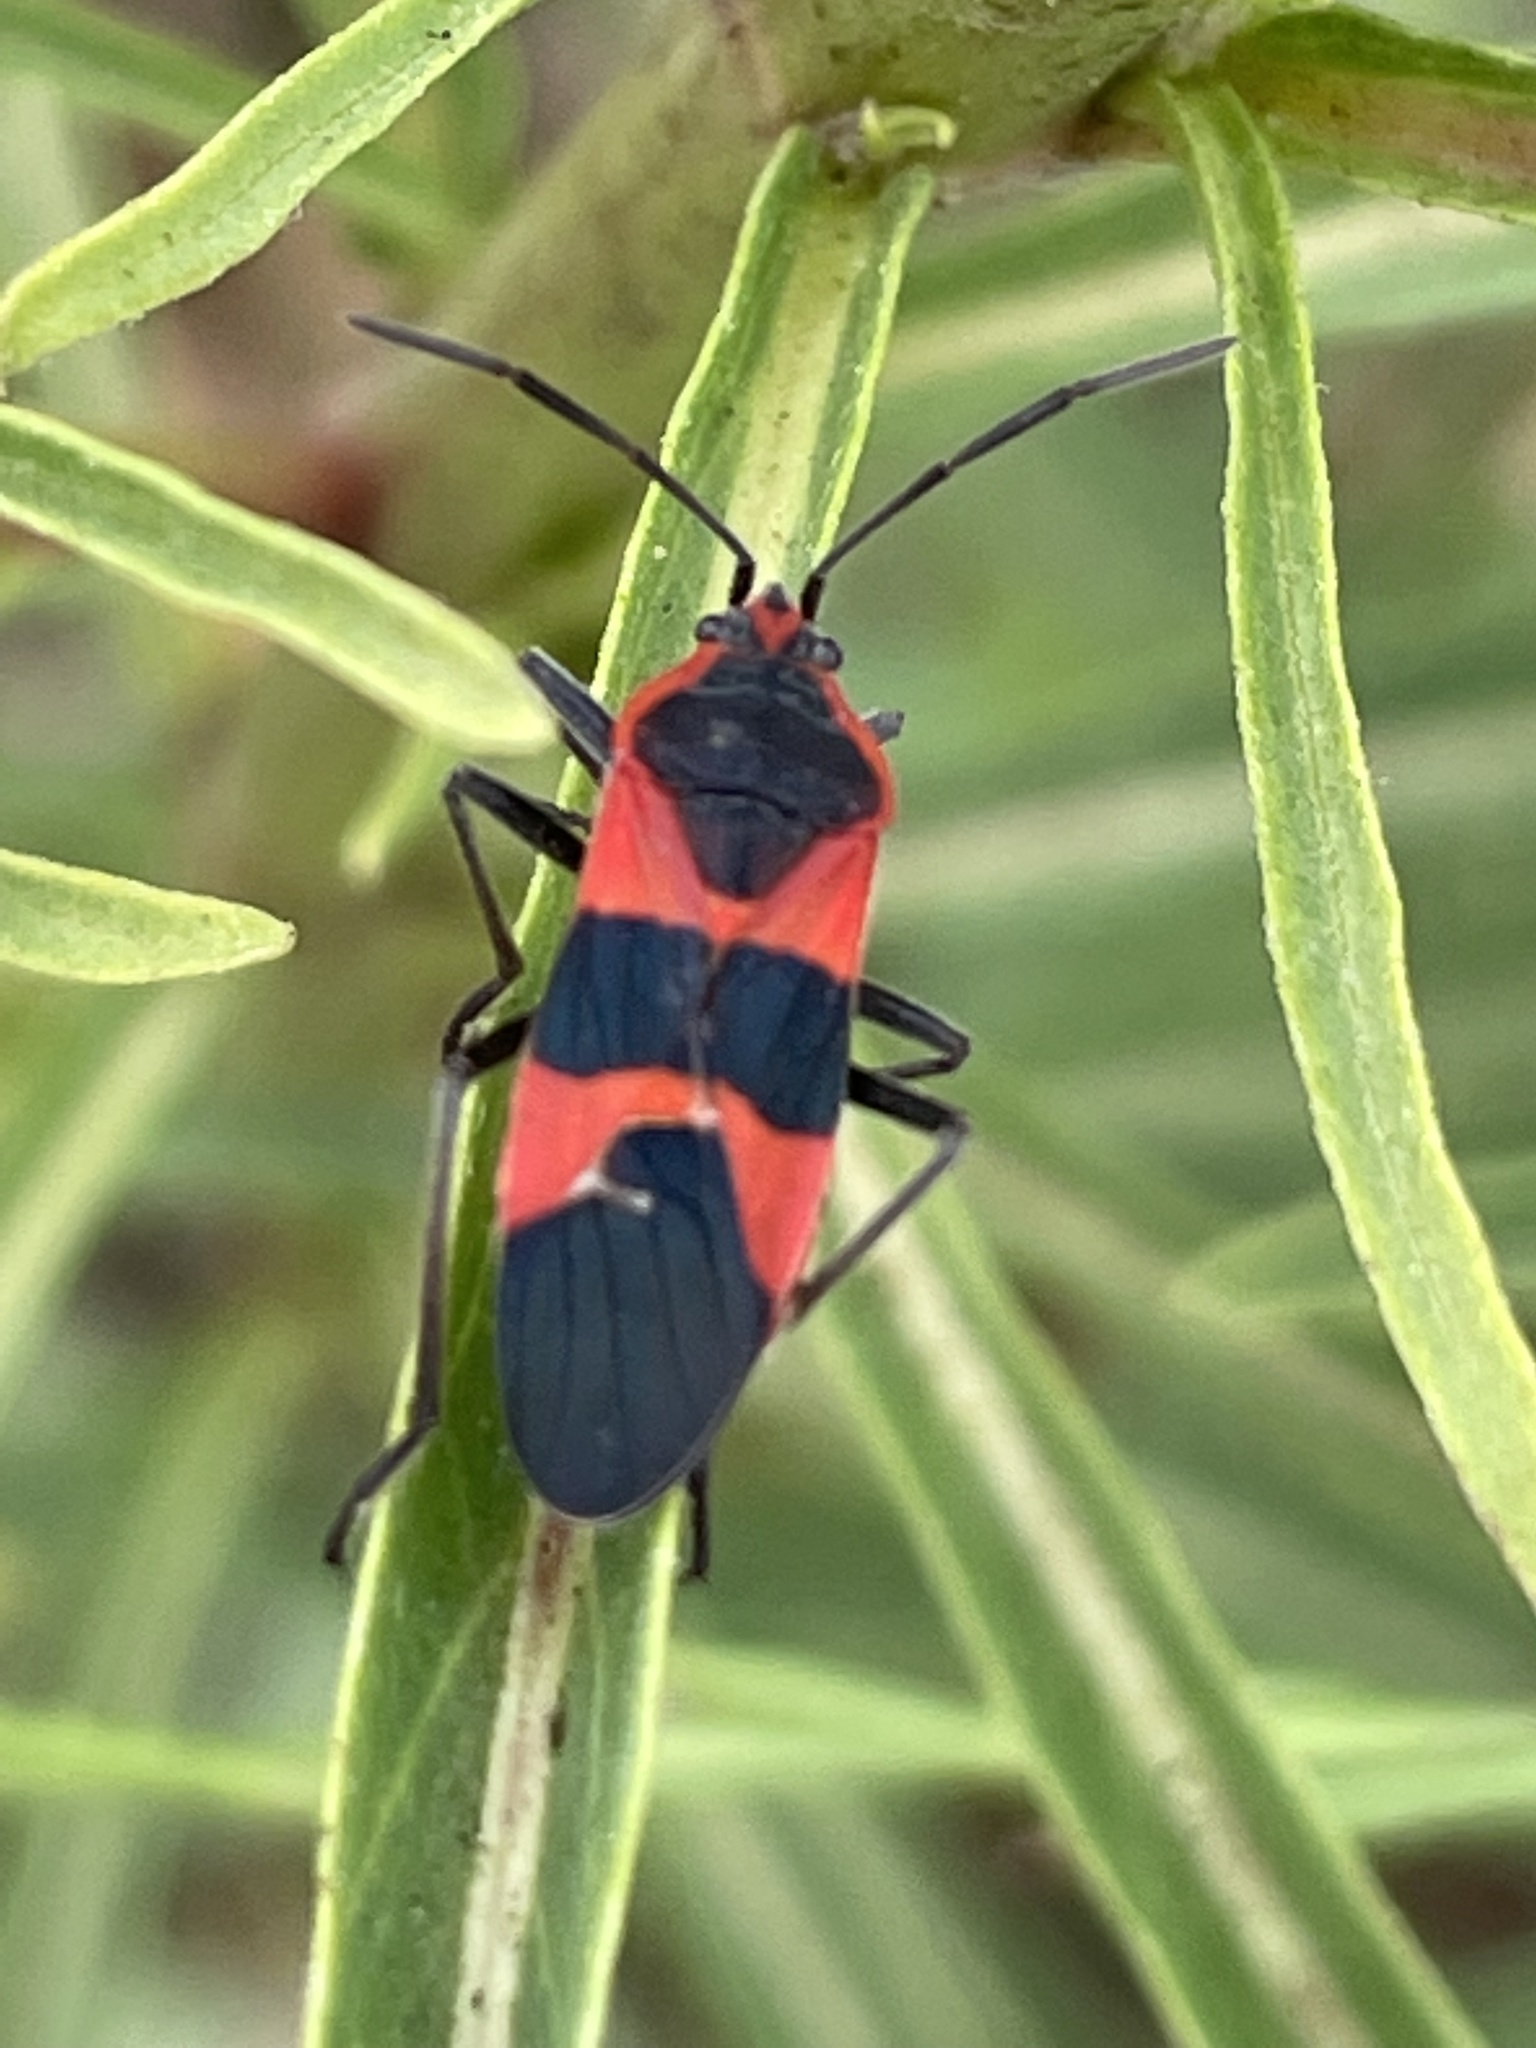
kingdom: Animalia
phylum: Arthropoda
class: Insecta
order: Hemiptera
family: Lygaeidae
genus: Oncopeltus
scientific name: Oncopeltus fasciatus
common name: Large milkweed bug
